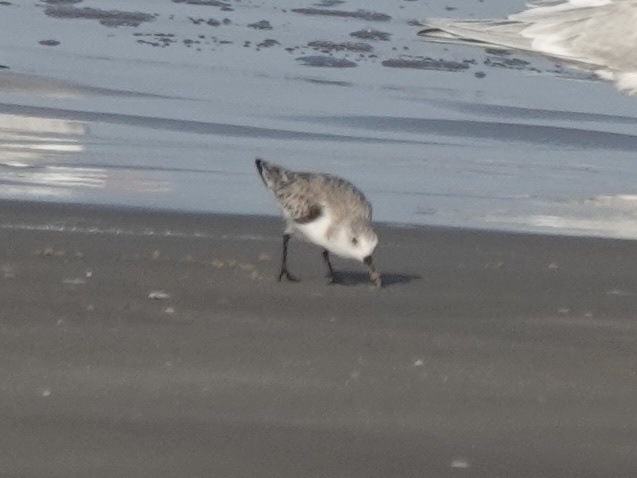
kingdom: Animalia
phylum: Chordata
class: Aves
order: Charadriiformes
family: Scolopacidae
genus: Calidris
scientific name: Calidris alba
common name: Sanderling
